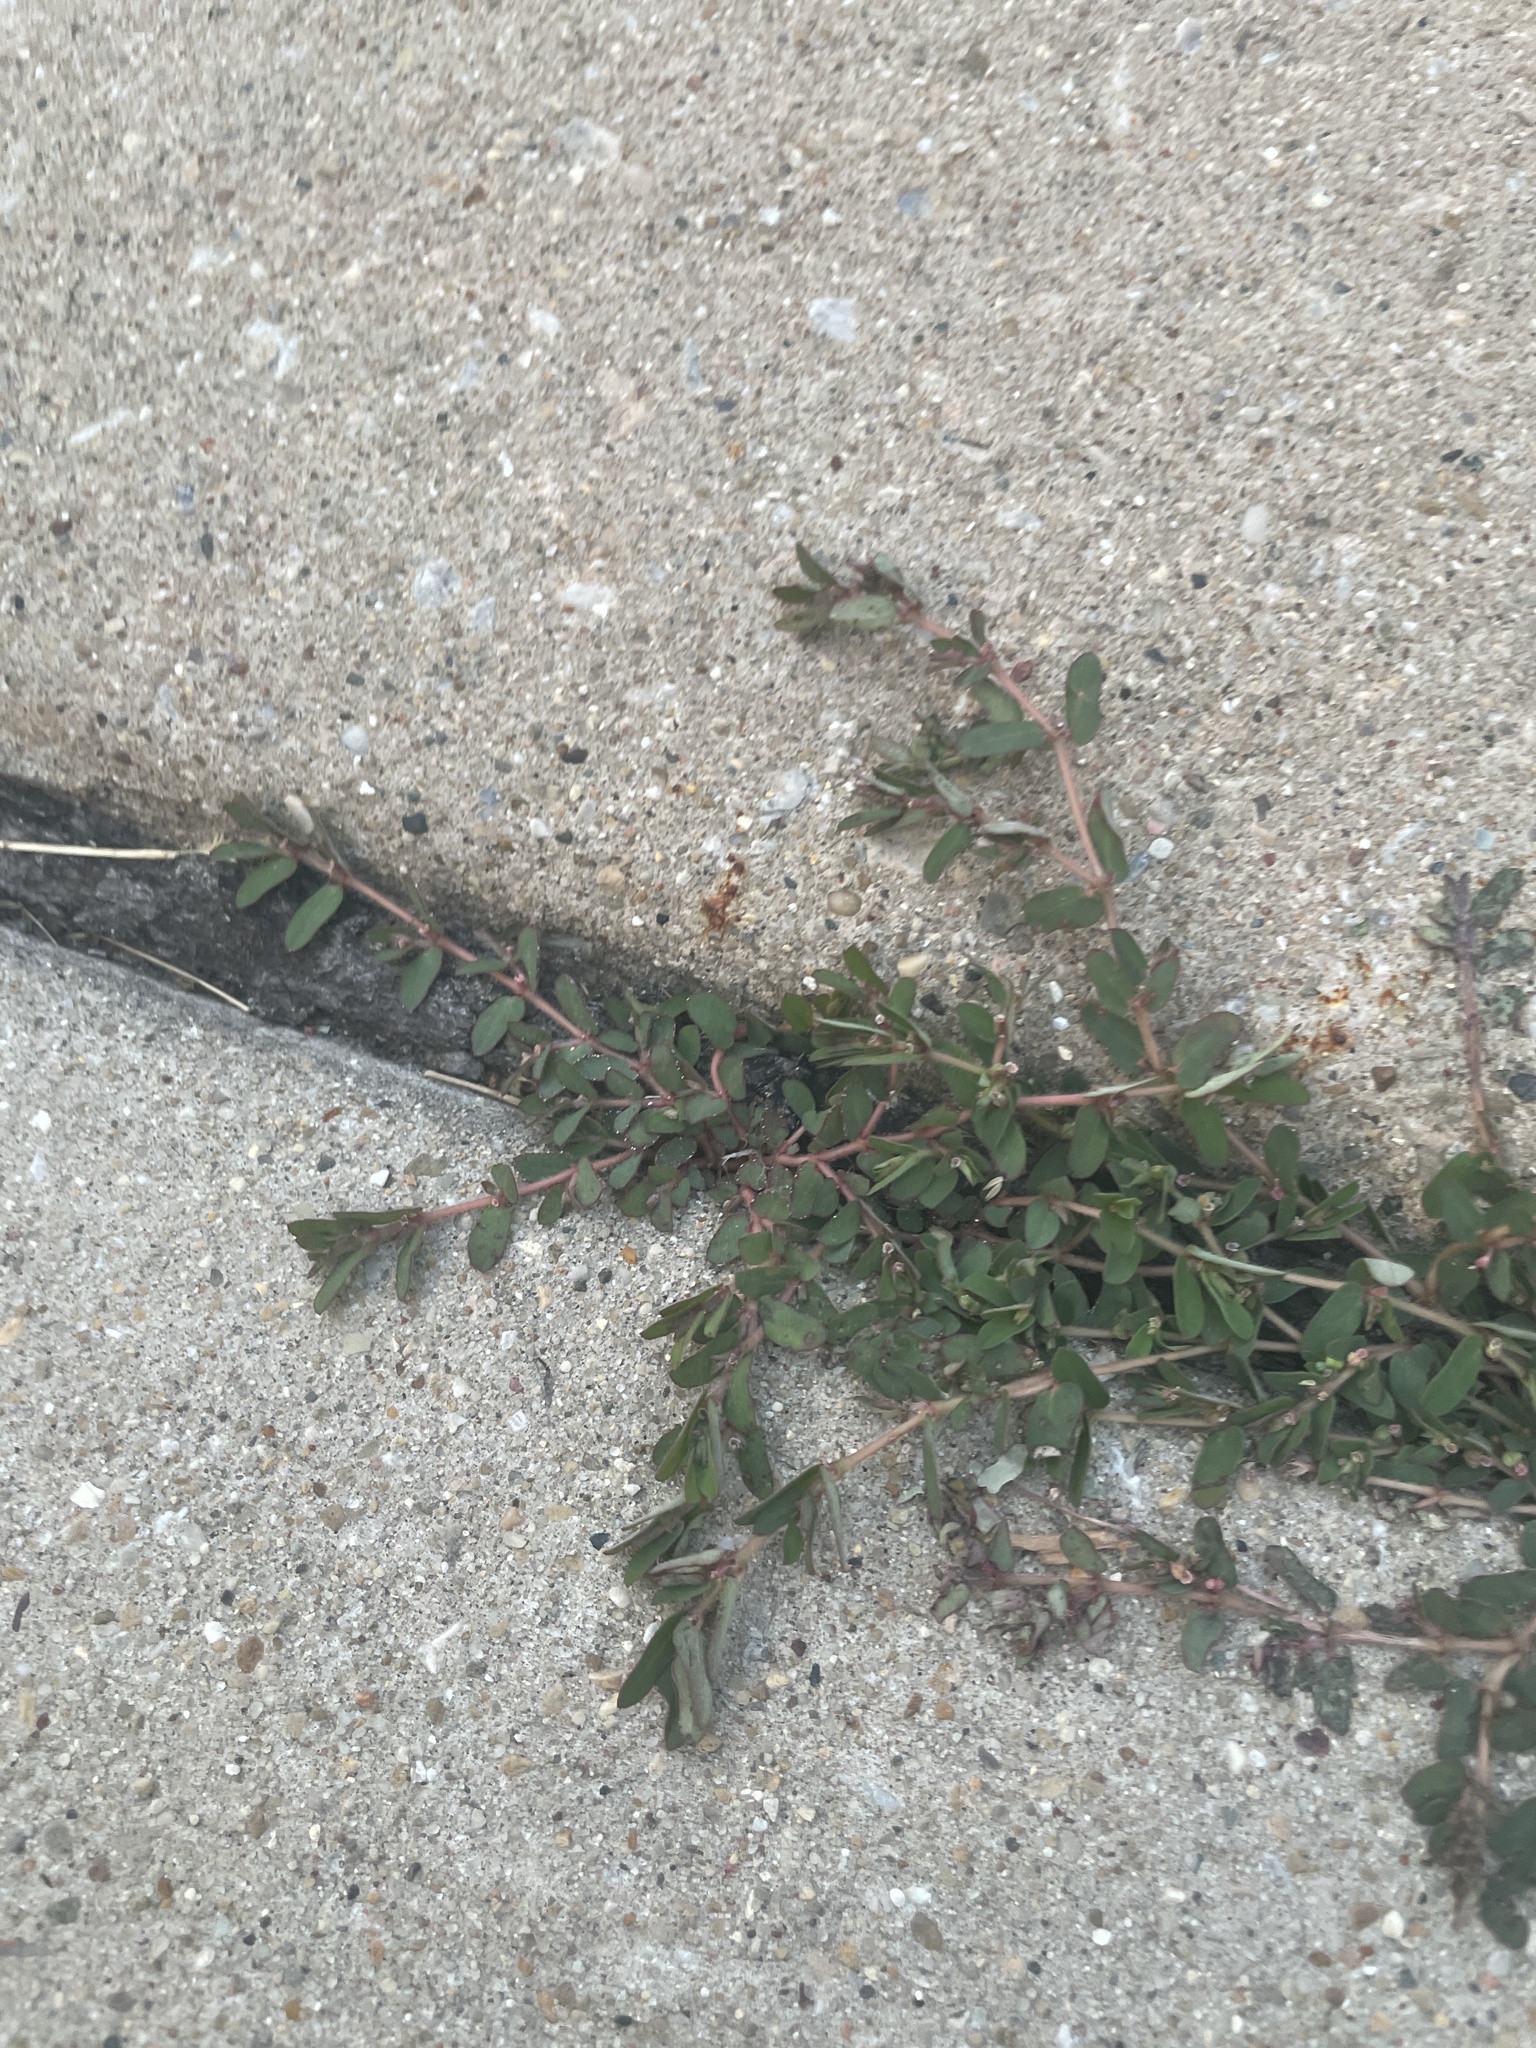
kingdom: Plantae
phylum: Tracheophyta
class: Magnoliopsida
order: Malpighiales
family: Euphorbiaceae
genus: Euphorbia
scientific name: Euphorbia maculata
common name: Spotted spurge
